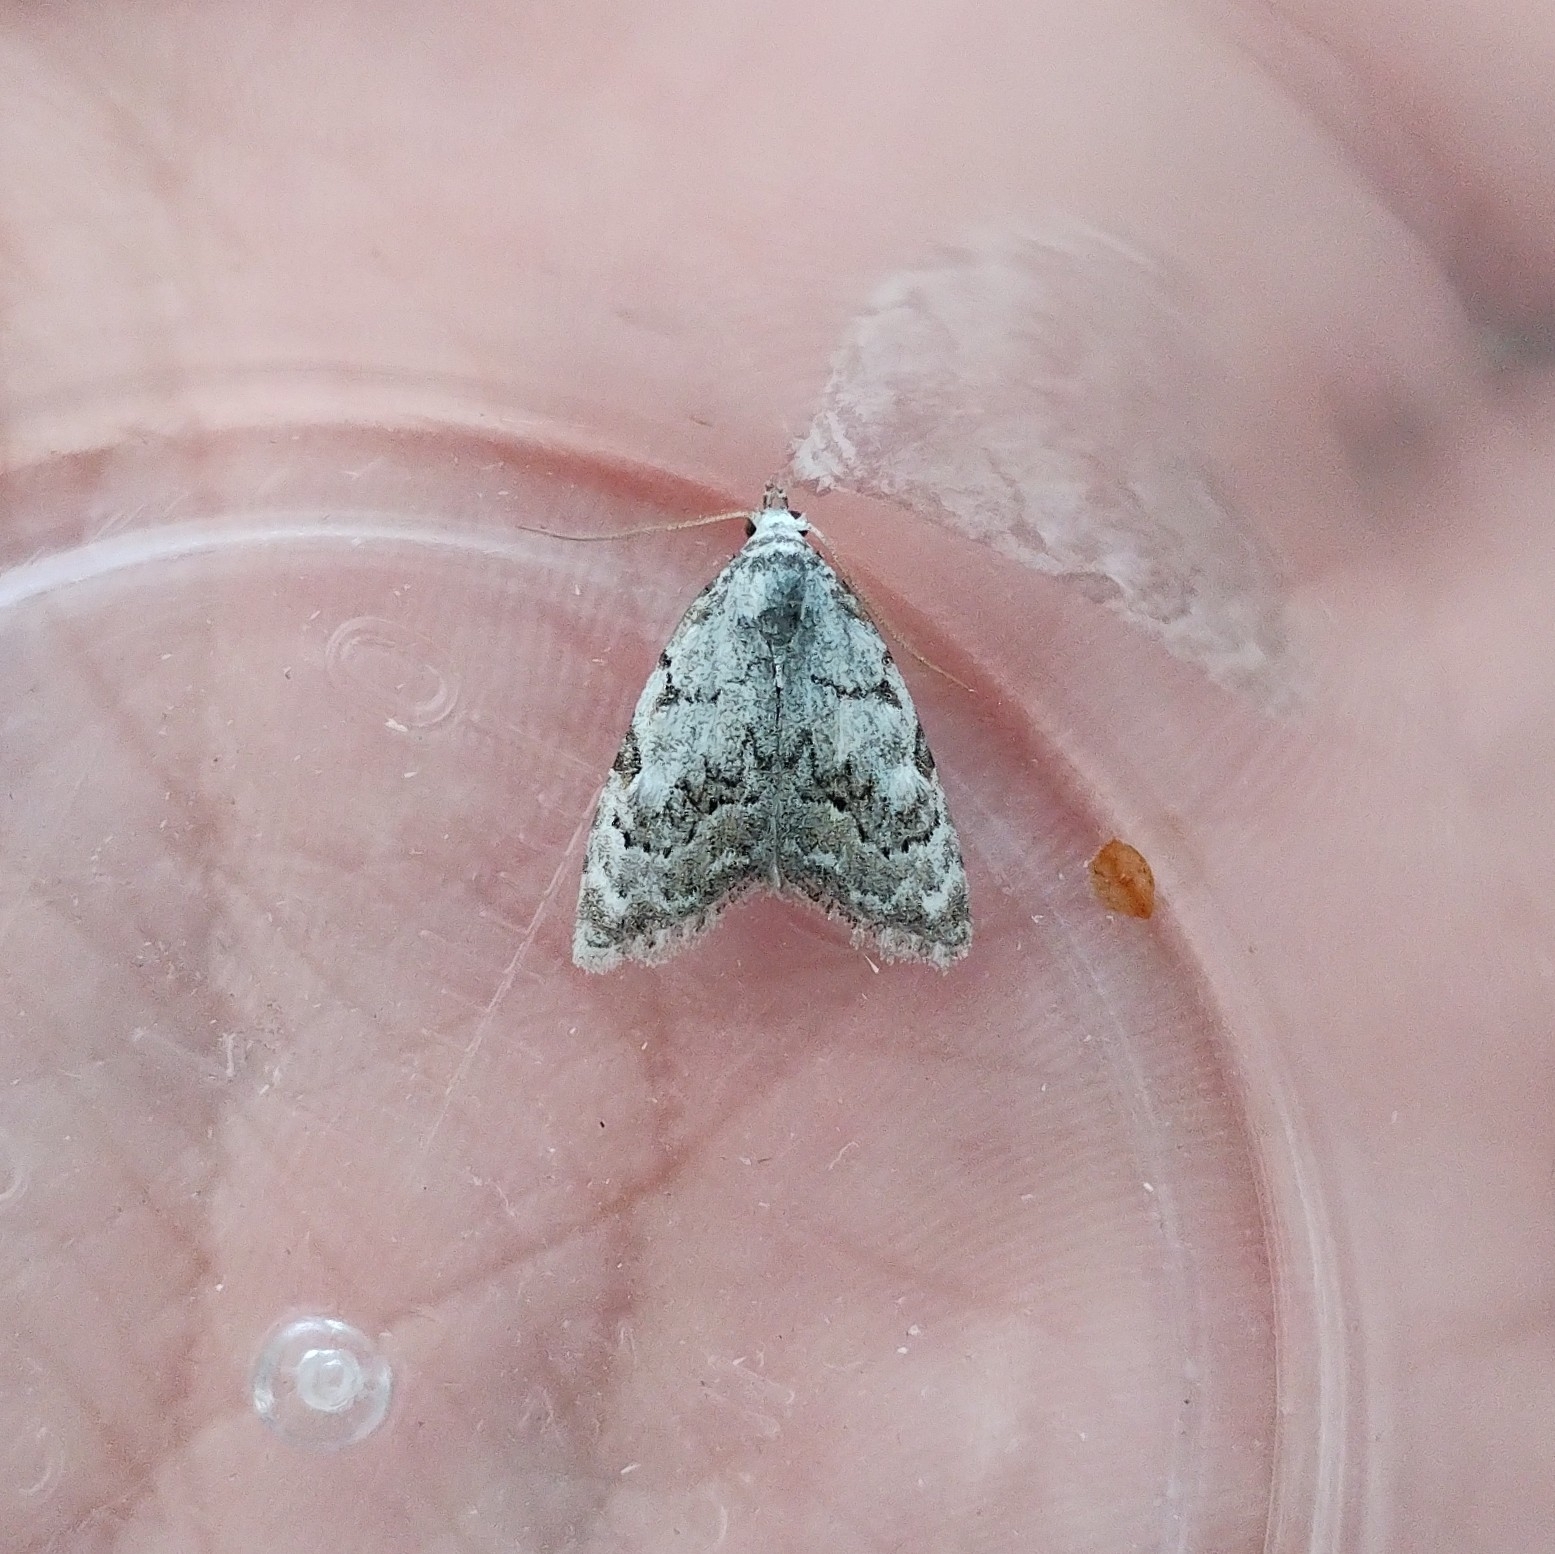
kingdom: Animalia
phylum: Arthropoda
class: Insecta
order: Lepidoptera
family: Nolidae
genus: Nola
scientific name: Nola confusalis
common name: Least black arches
